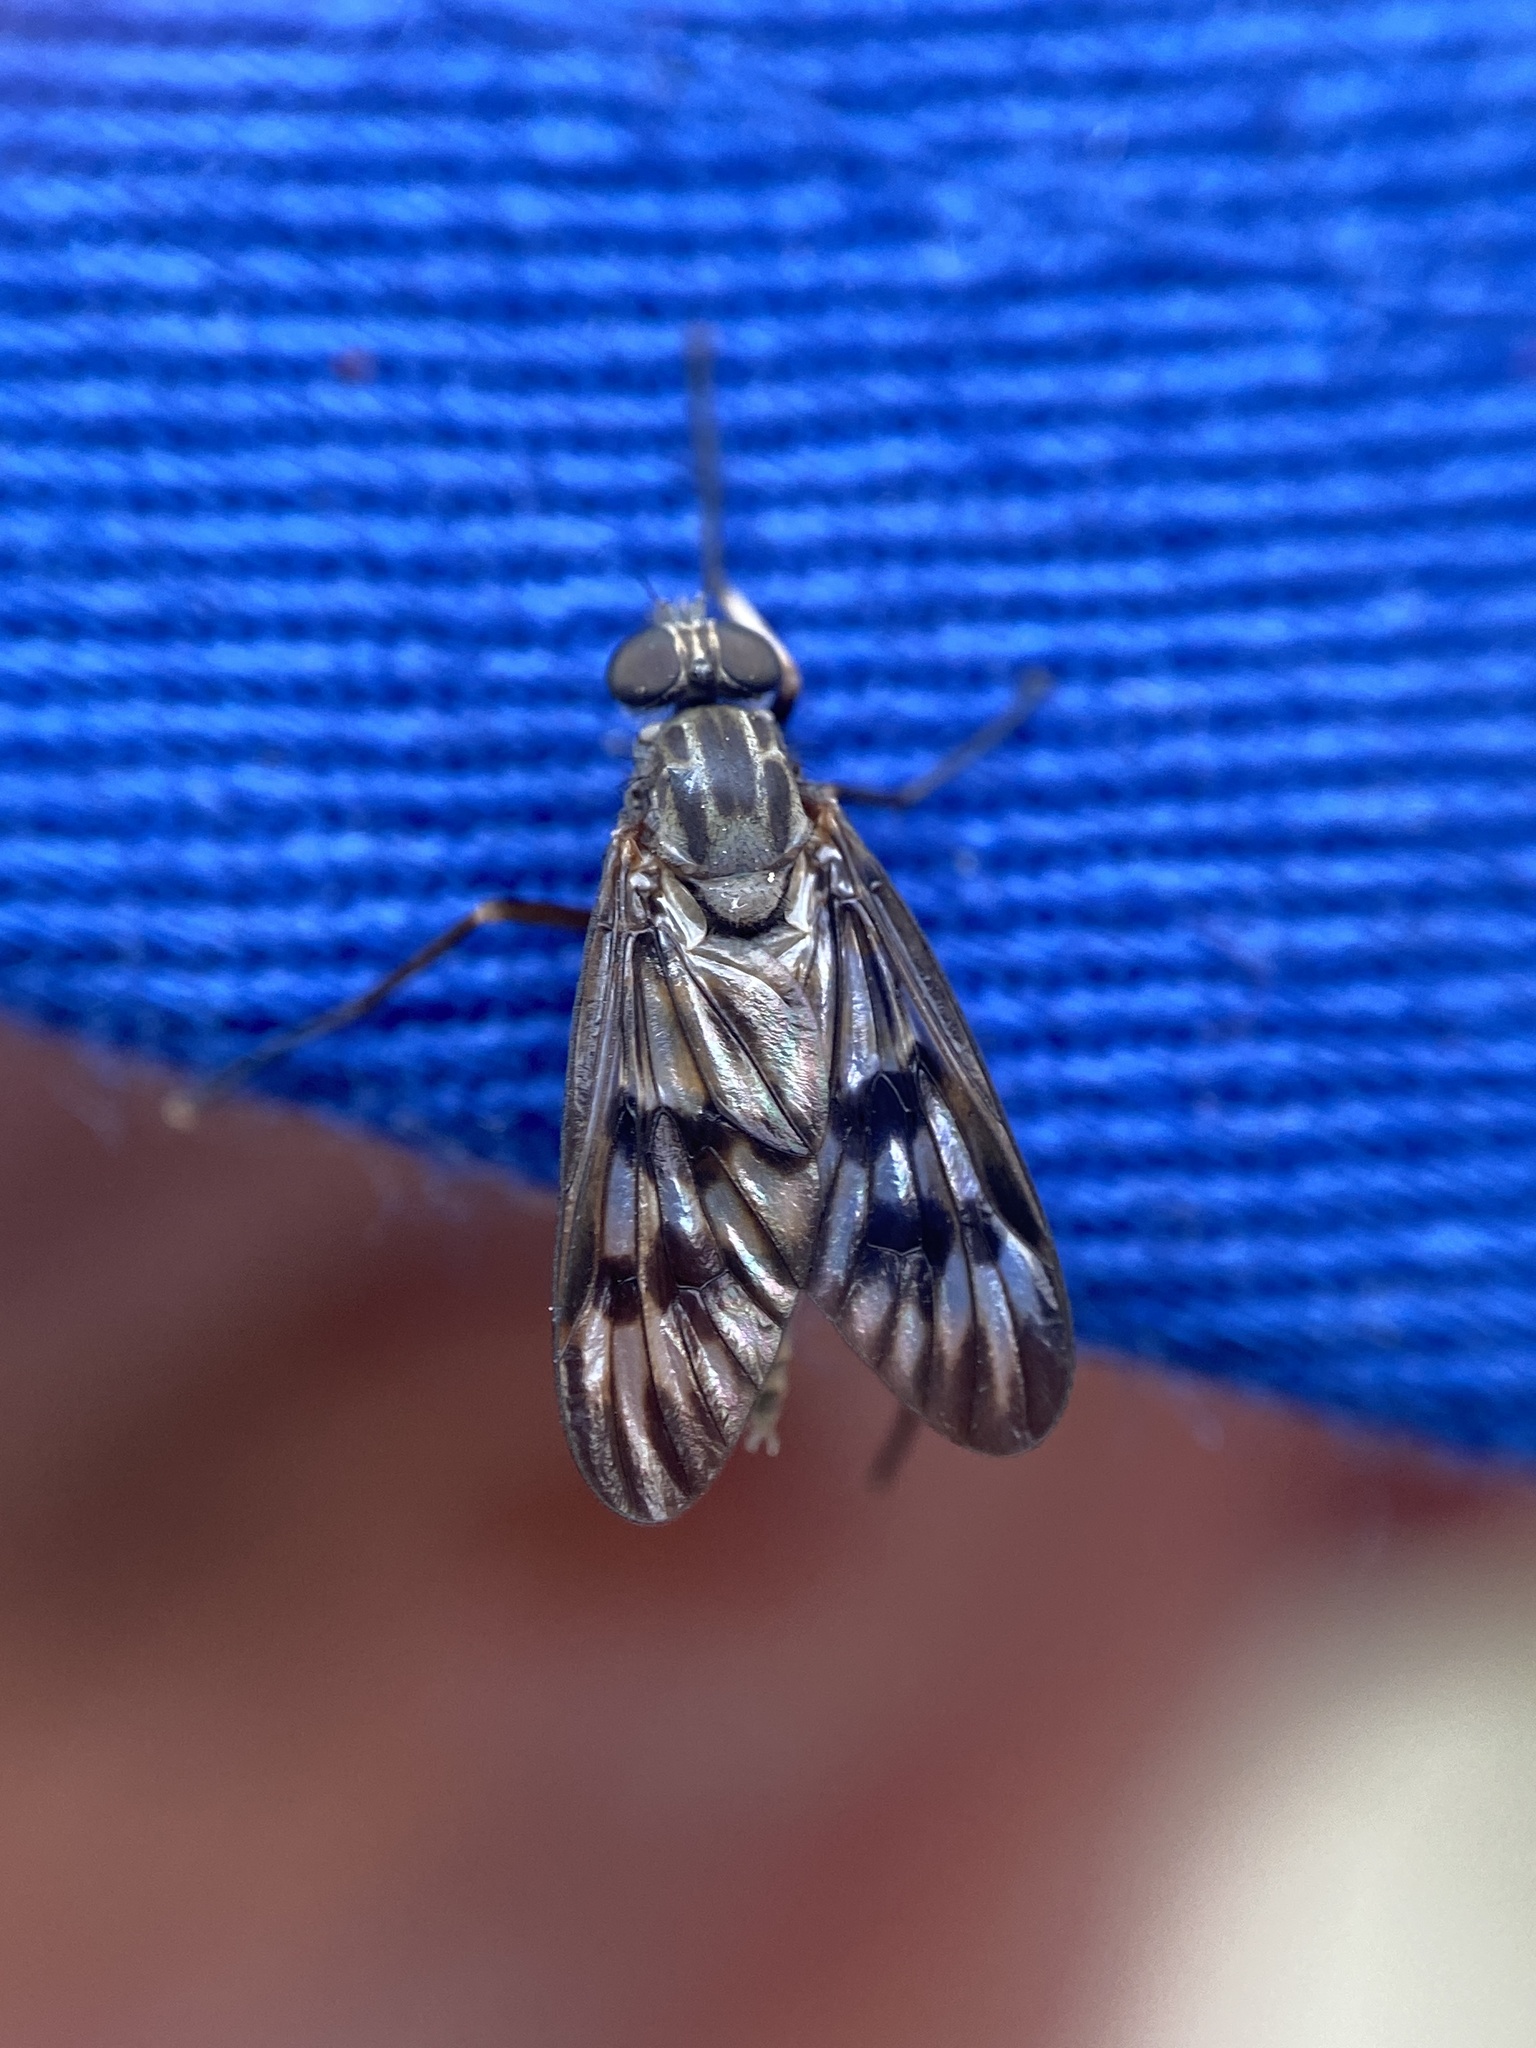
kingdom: Animalia
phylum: Arthropoda
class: Insecta
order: Diptera
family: Rhagionidae
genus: Rhagio
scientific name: Rhagio mystaceus
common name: Common snipe fly
